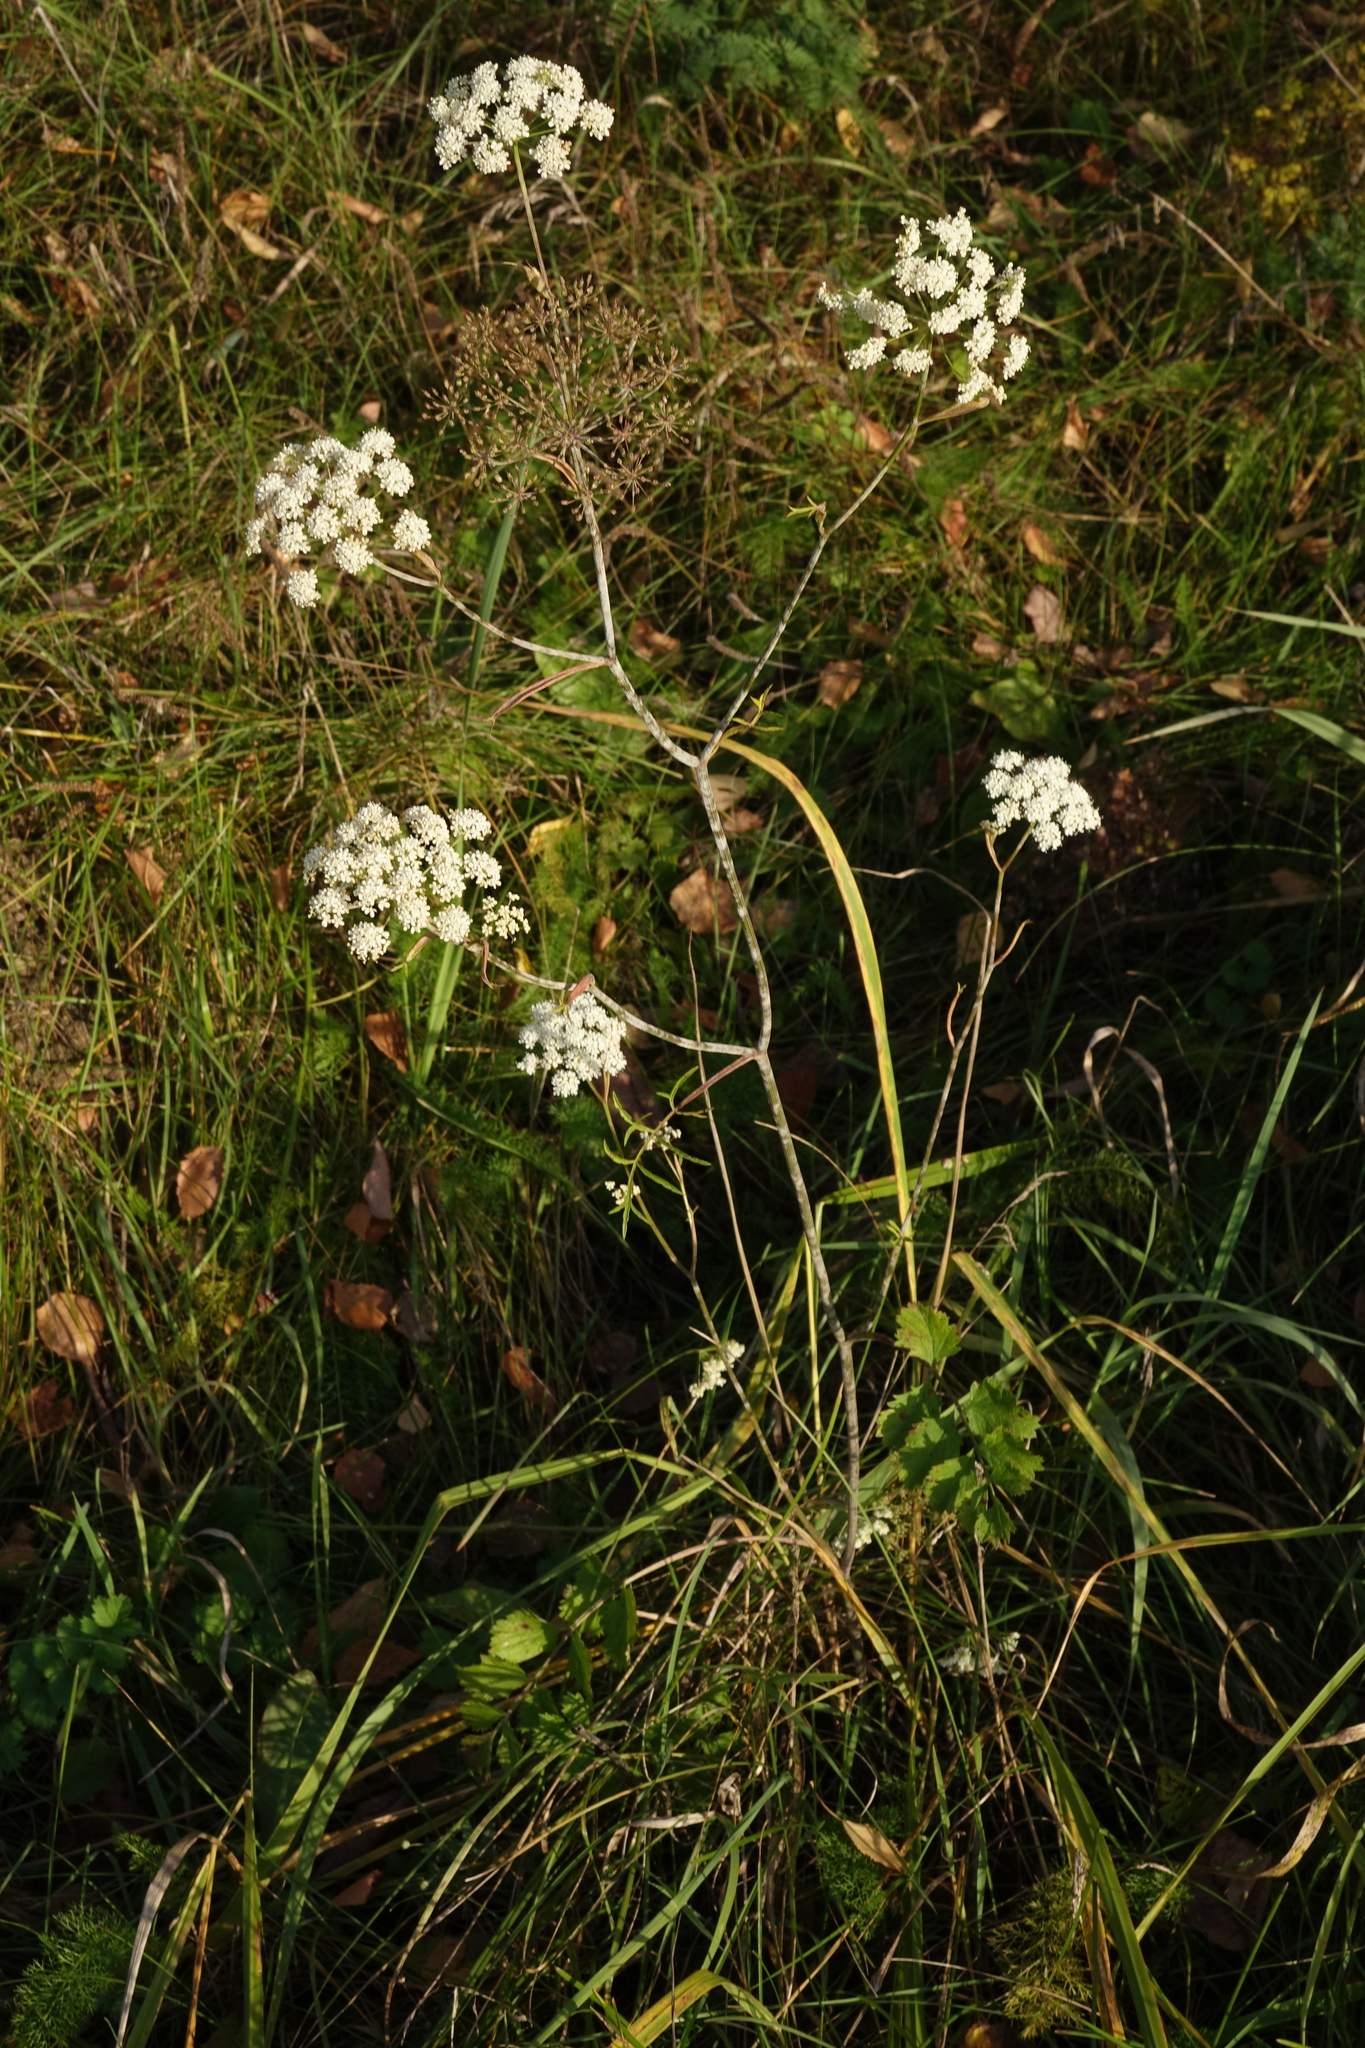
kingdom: Plantae
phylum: Tracheophyta
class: Magnoliopsida
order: Apiales
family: Apiaceae
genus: Pimpinella
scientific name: Pimpinella saxifraga
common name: Burnet-saxifrage
